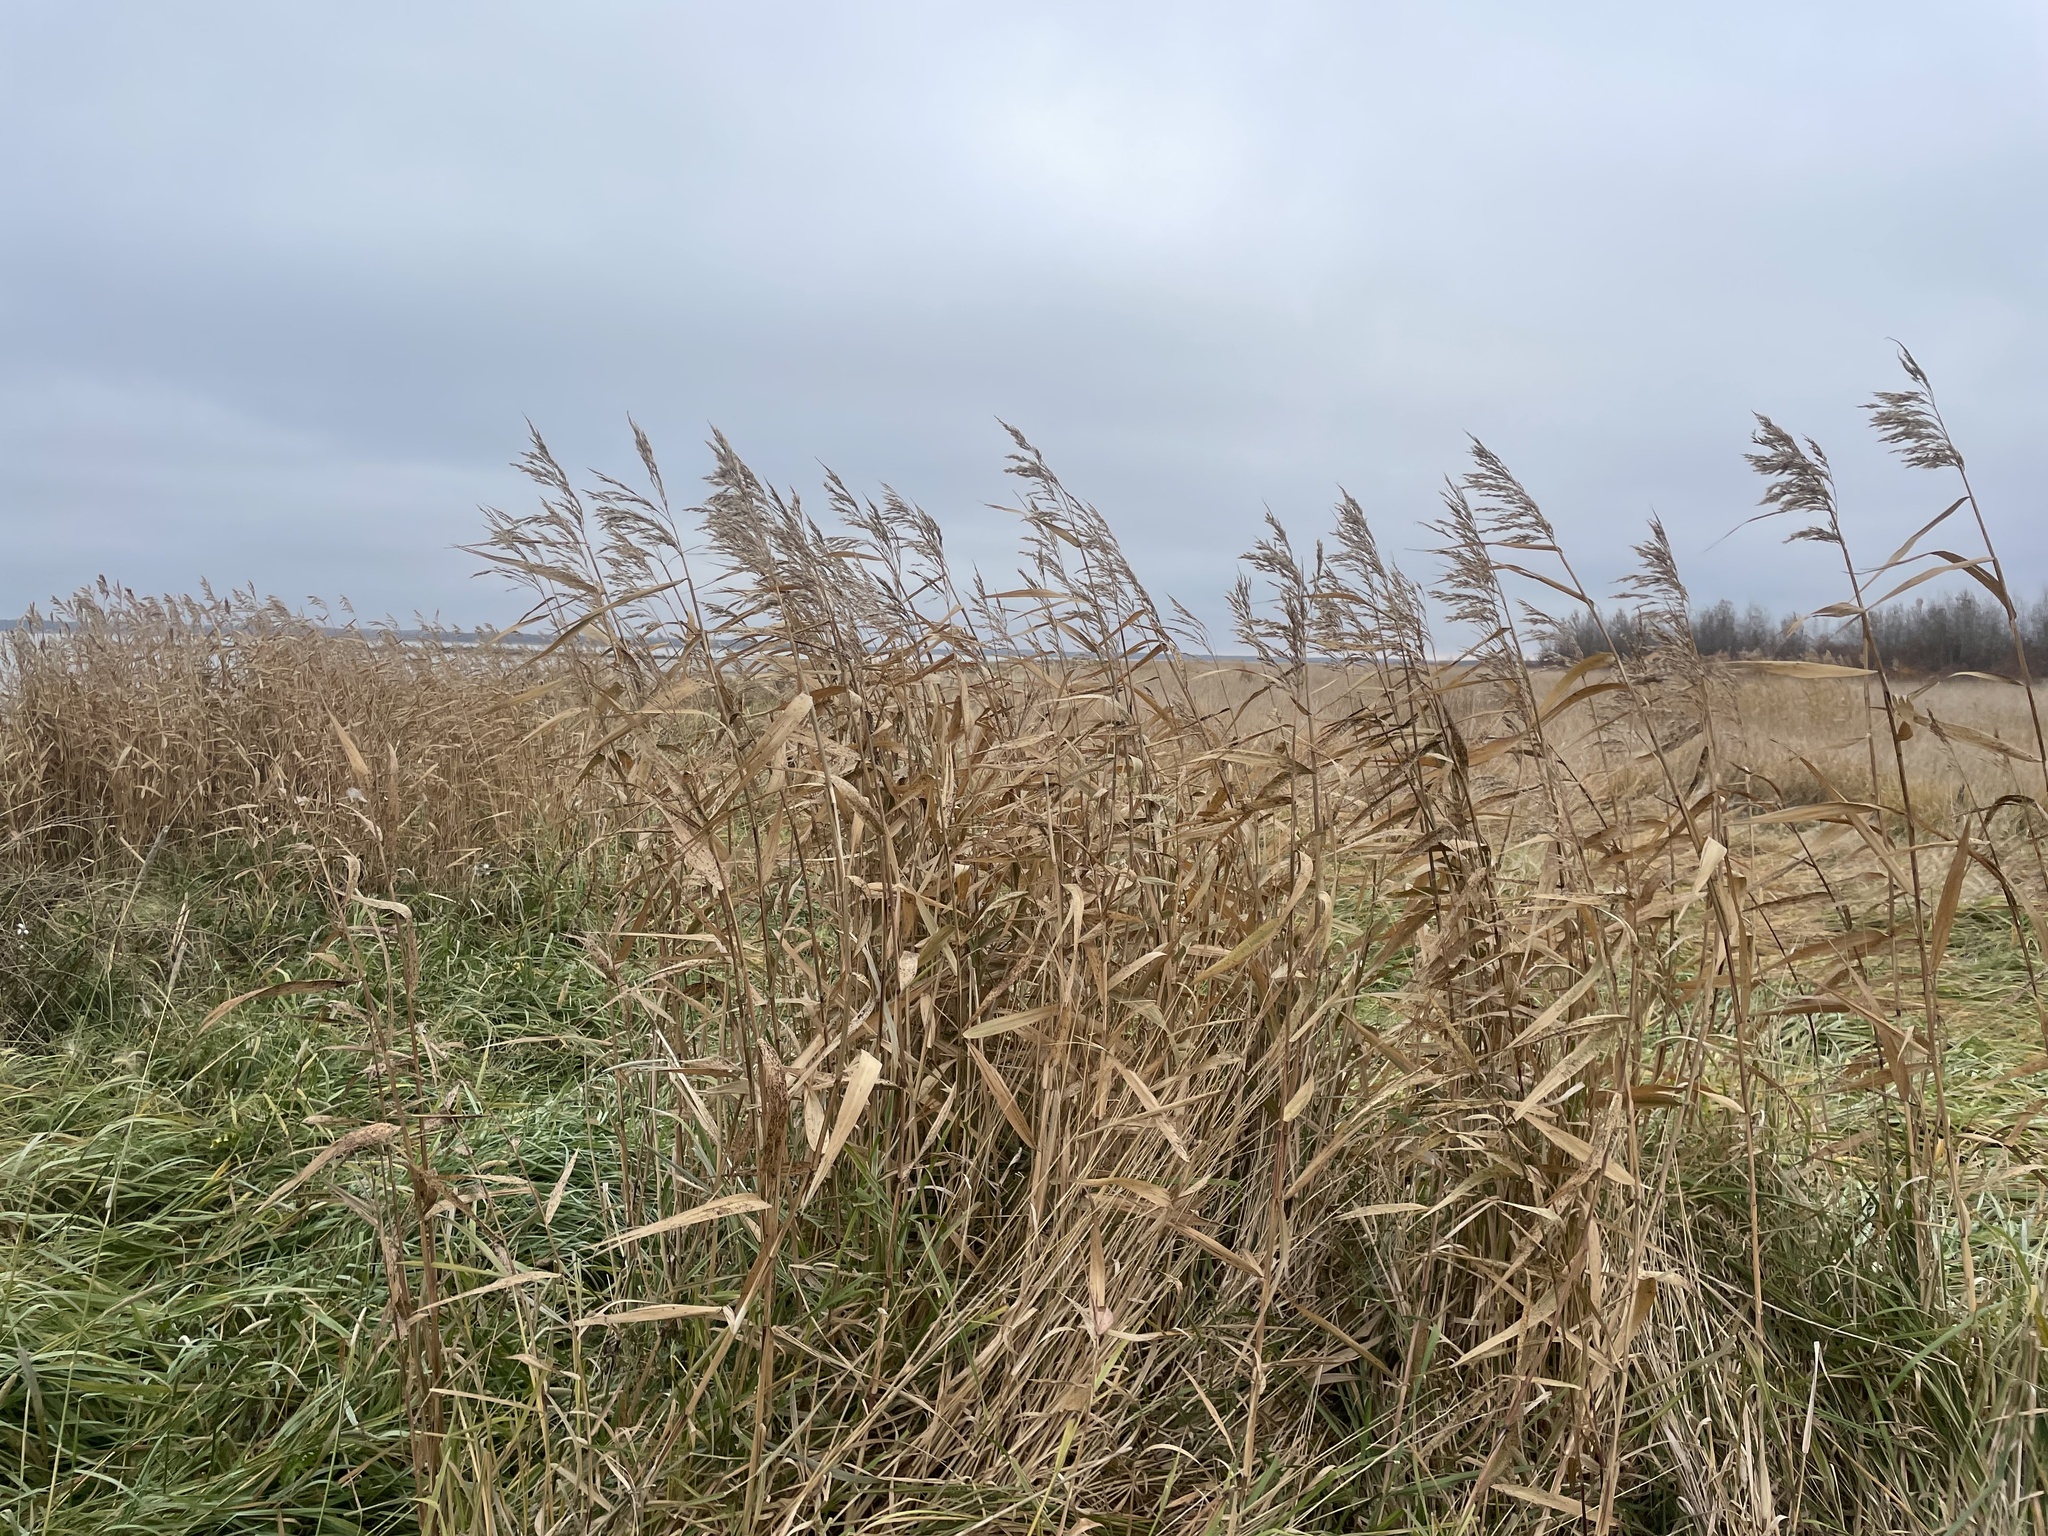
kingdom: Plantae
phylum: Tracheophyta
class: Liliopsida
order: Poales
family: Poaceae
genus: Phragmites
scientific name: Phragmites australis
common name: Common reed
